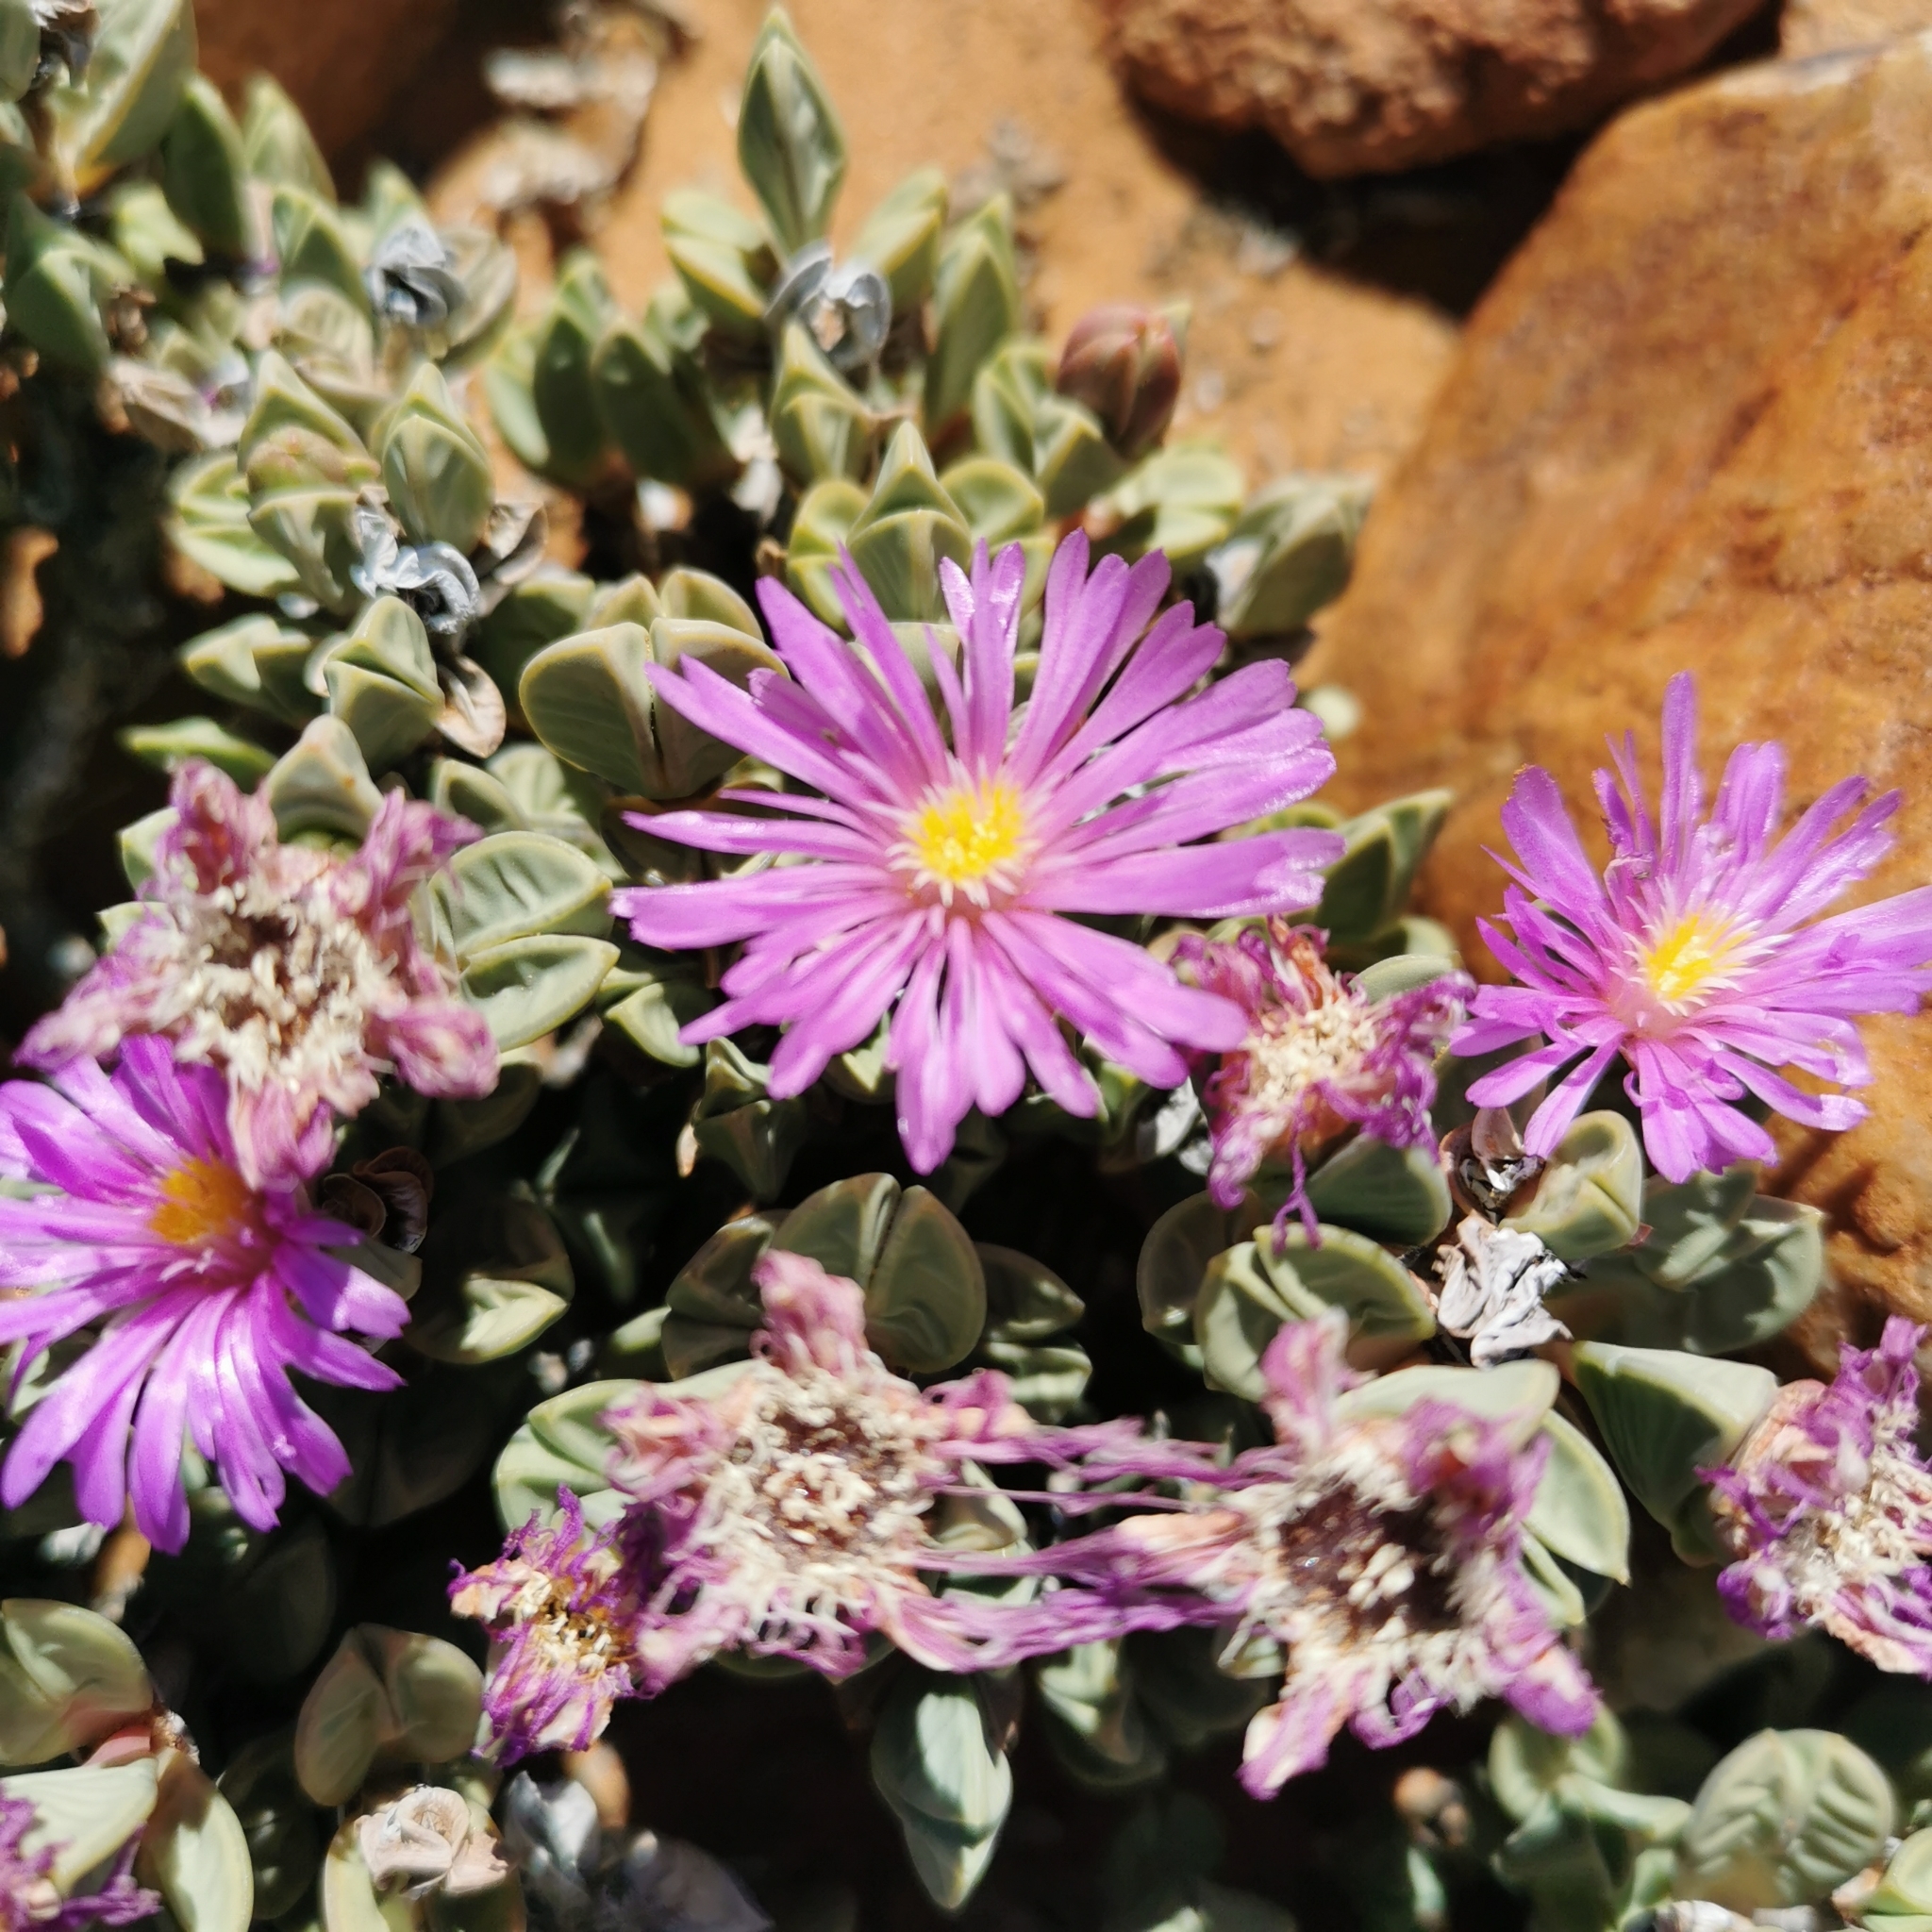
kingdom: Plantae
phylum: Tracheophyta
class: Magnoliopsida
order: Caryophyllales
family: Aizoaceae
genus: Braunsia
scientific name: Braunsia stayneri
